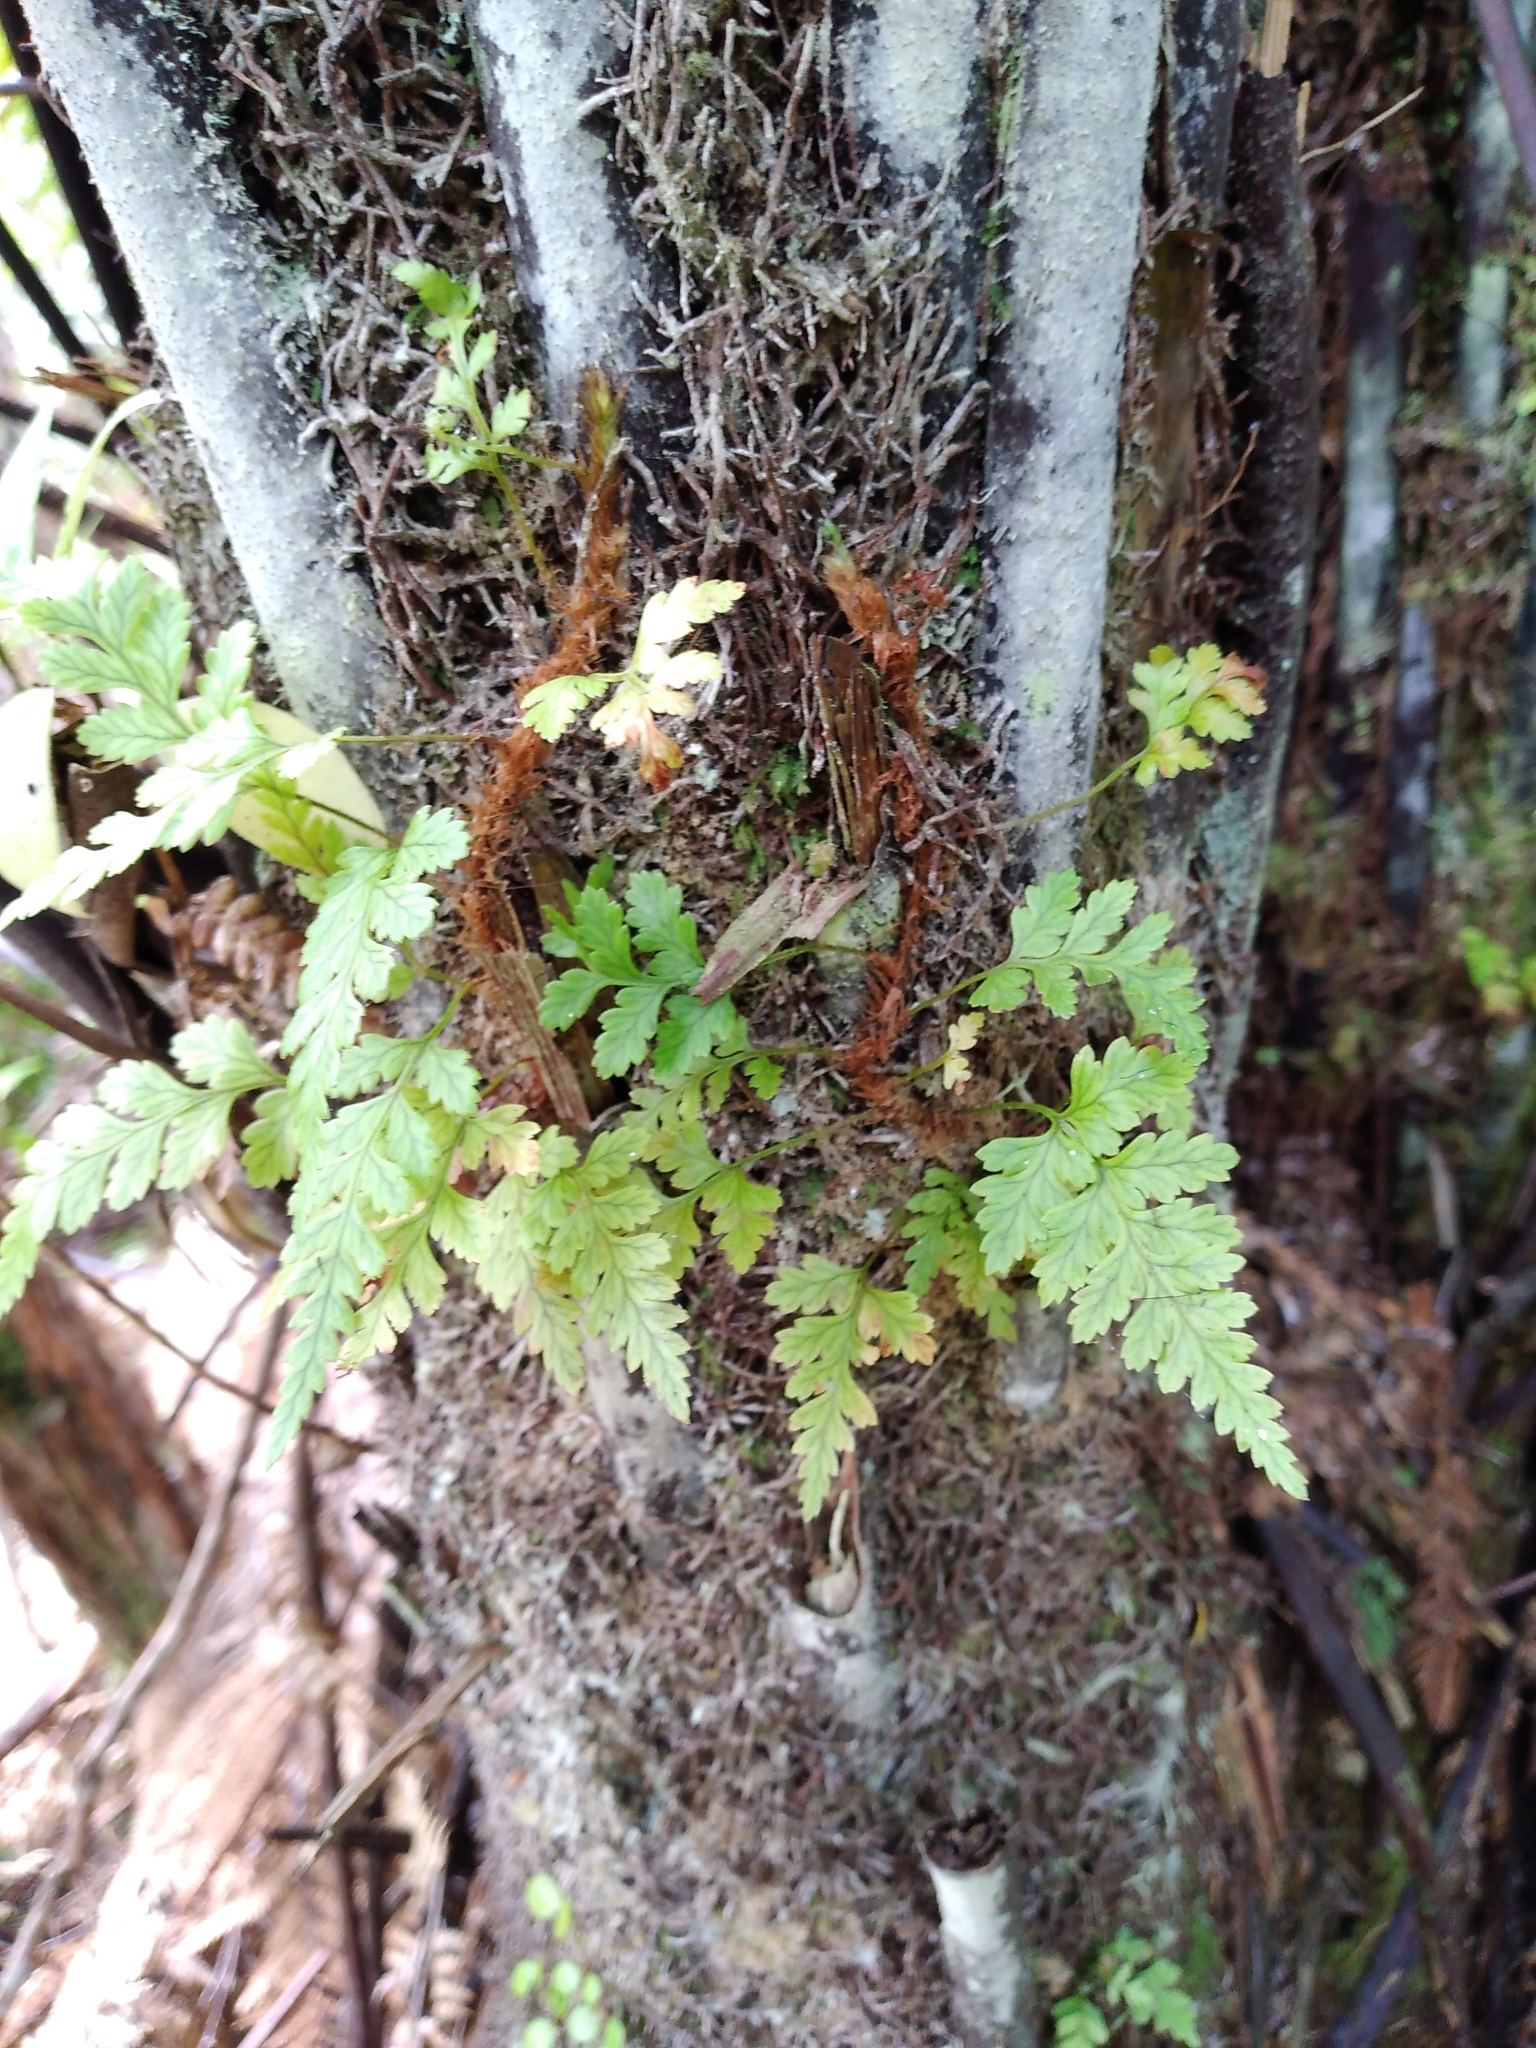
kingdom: Plantae
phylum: Tracheophyta
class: Polypodiopsida
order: Polypodiales
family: Dryopteridaceae
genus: Rumohra
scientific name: Rumohra adiantiformis
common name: Leather fern
